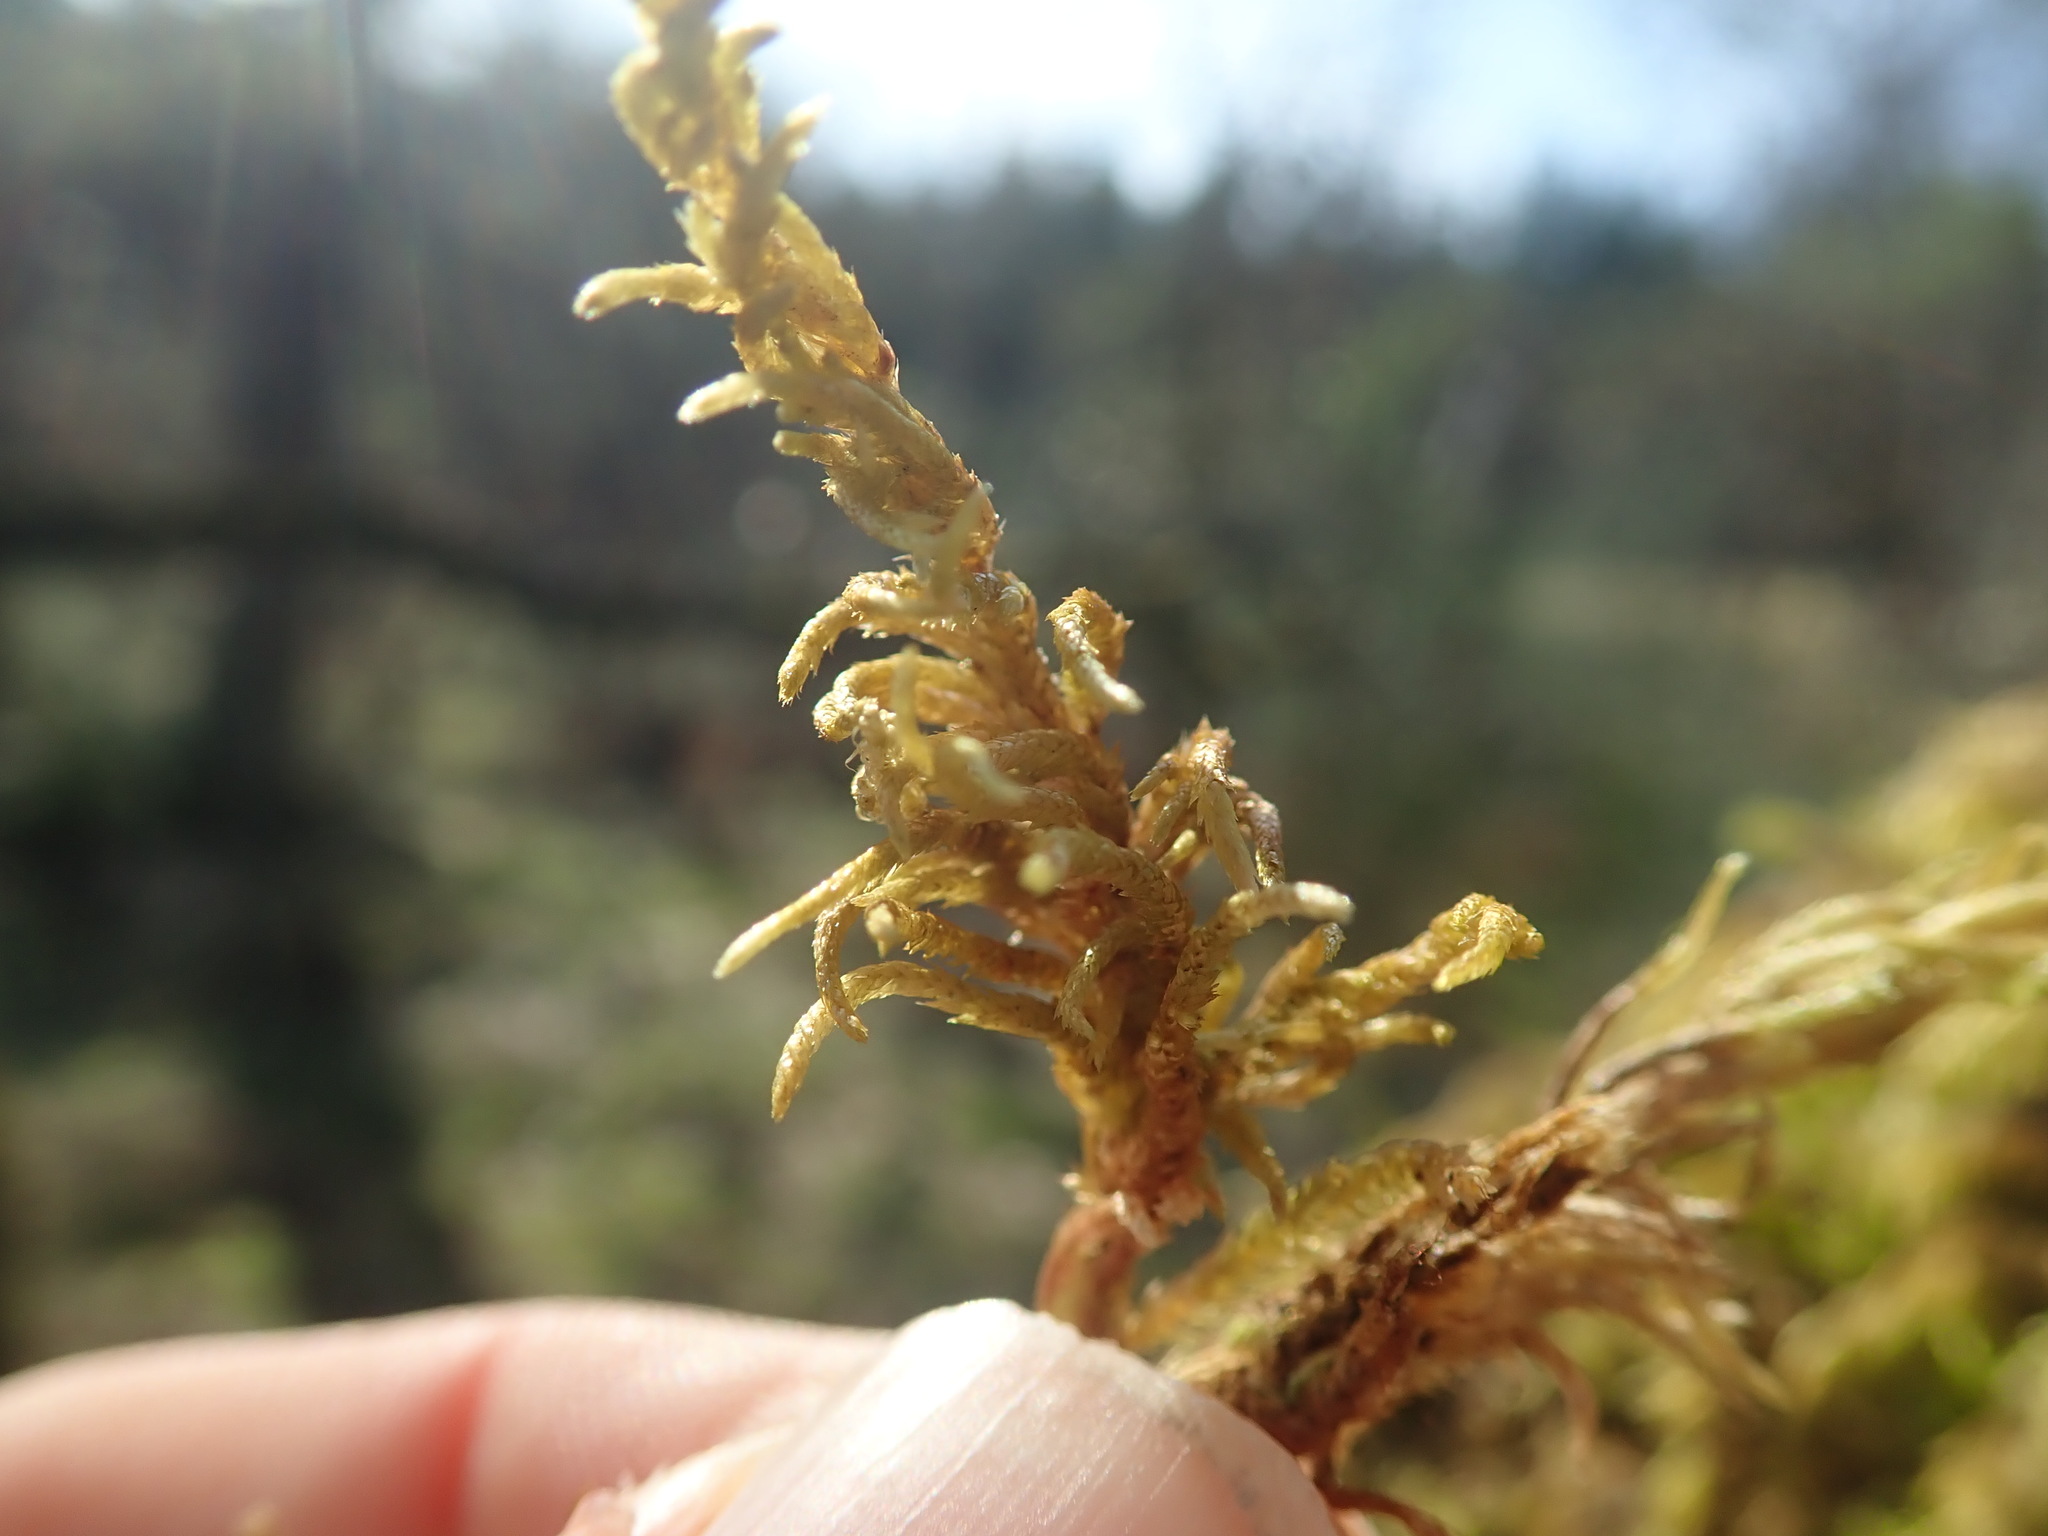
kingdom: Plantae
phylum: Bryophyta
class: Bryopsida
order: Hypnales
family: Cryphaeaceae
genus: Dendroalsia
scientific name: Dendroalsia abietina
